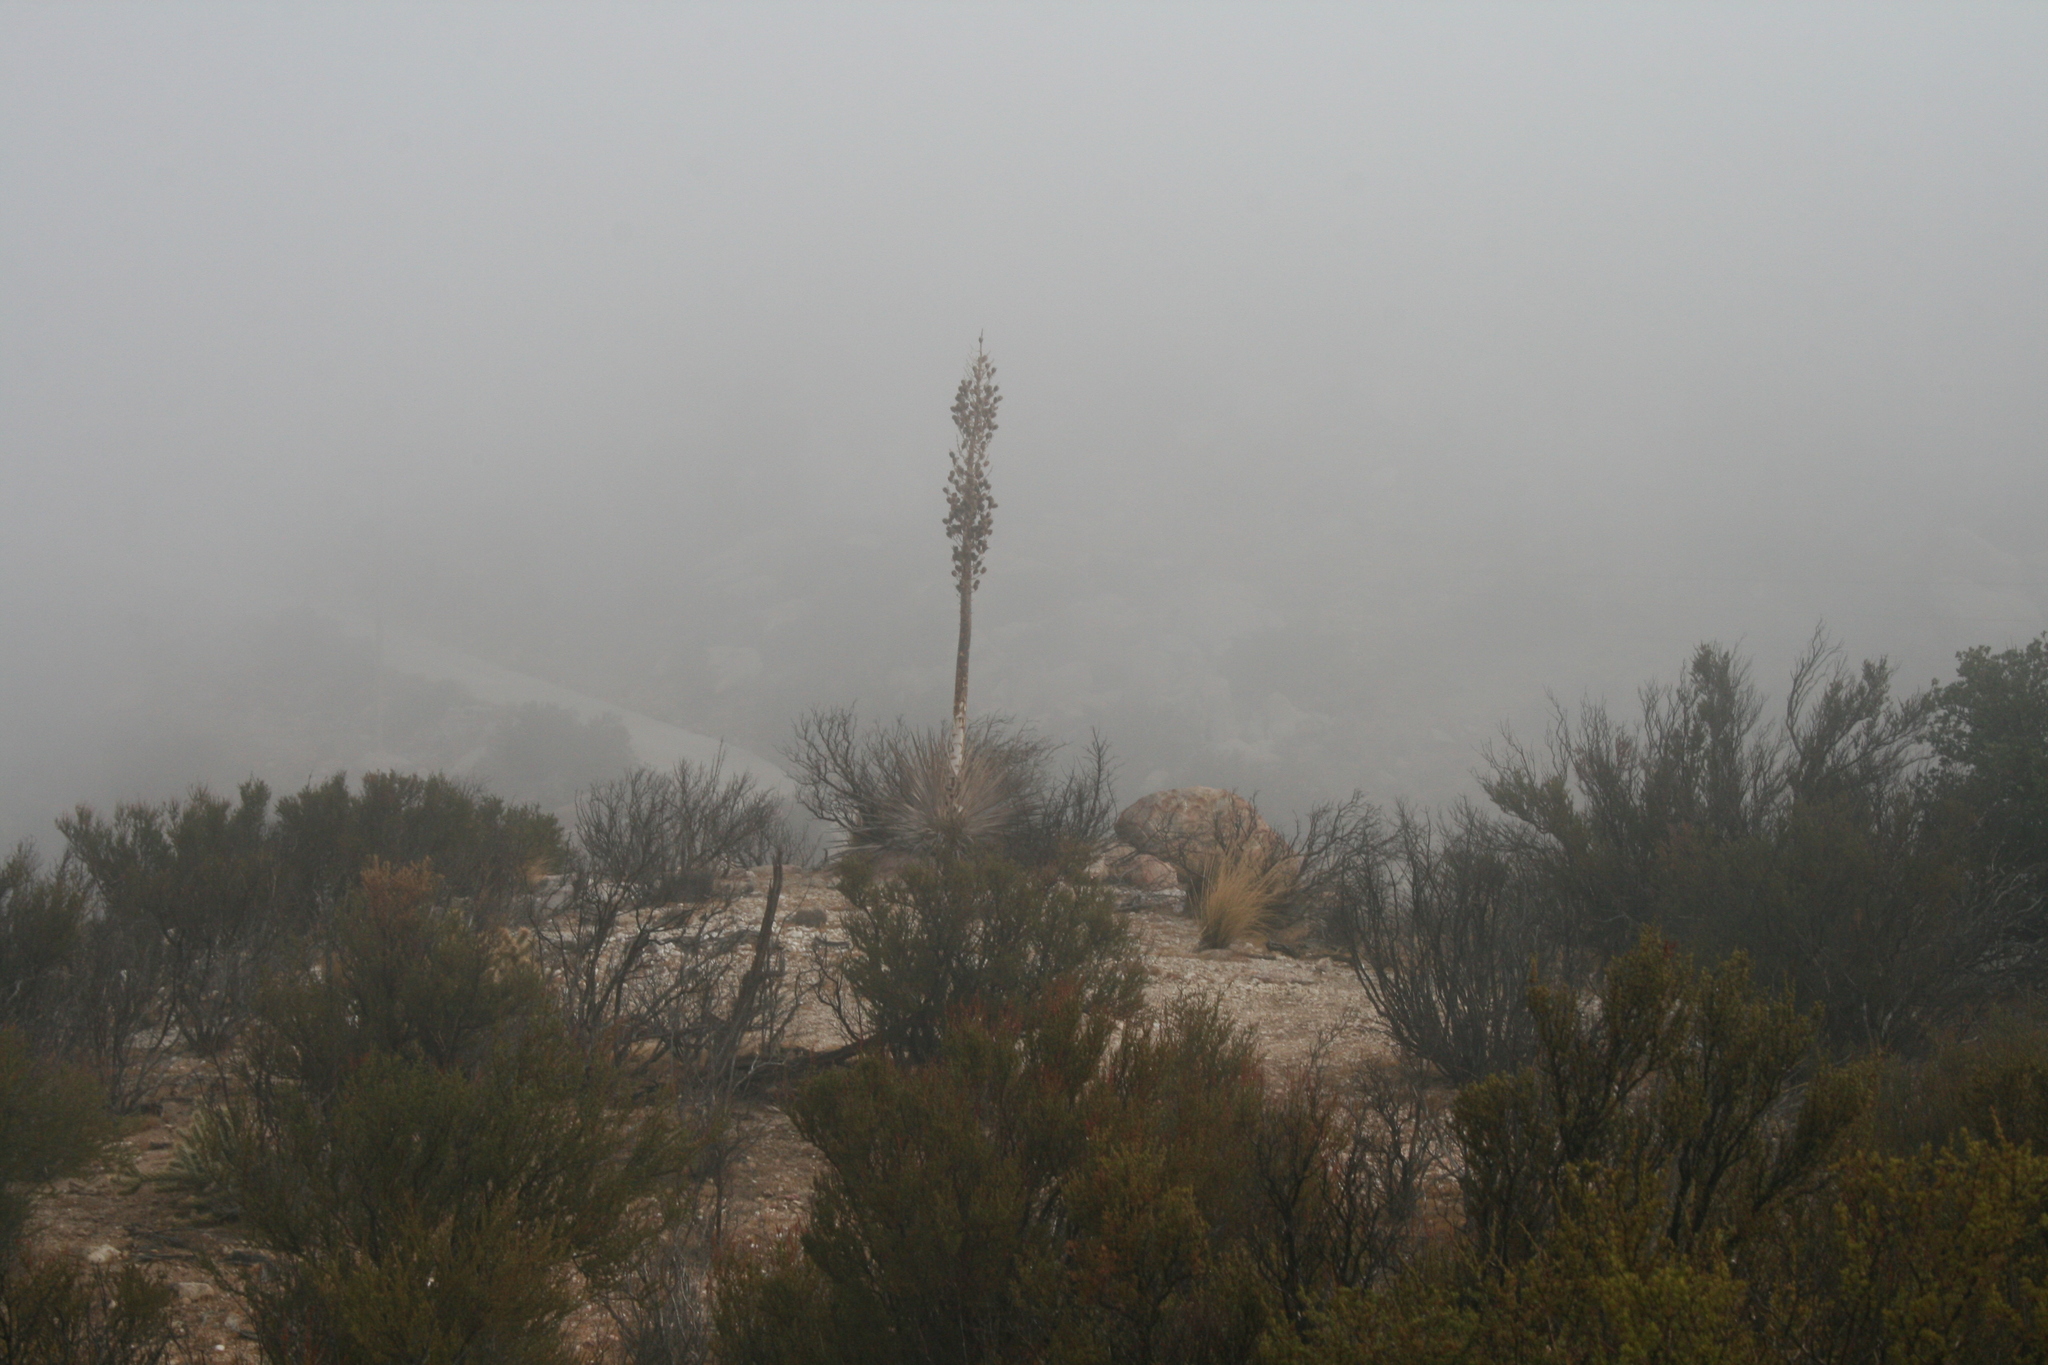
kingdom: Plantae
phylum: Tracheophyta
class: Liliopsida
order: Asparagales
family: Asparagaceae
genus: Hesperoyucca
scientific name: Hesperoyucca whipplei
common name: Our lord's-candle
